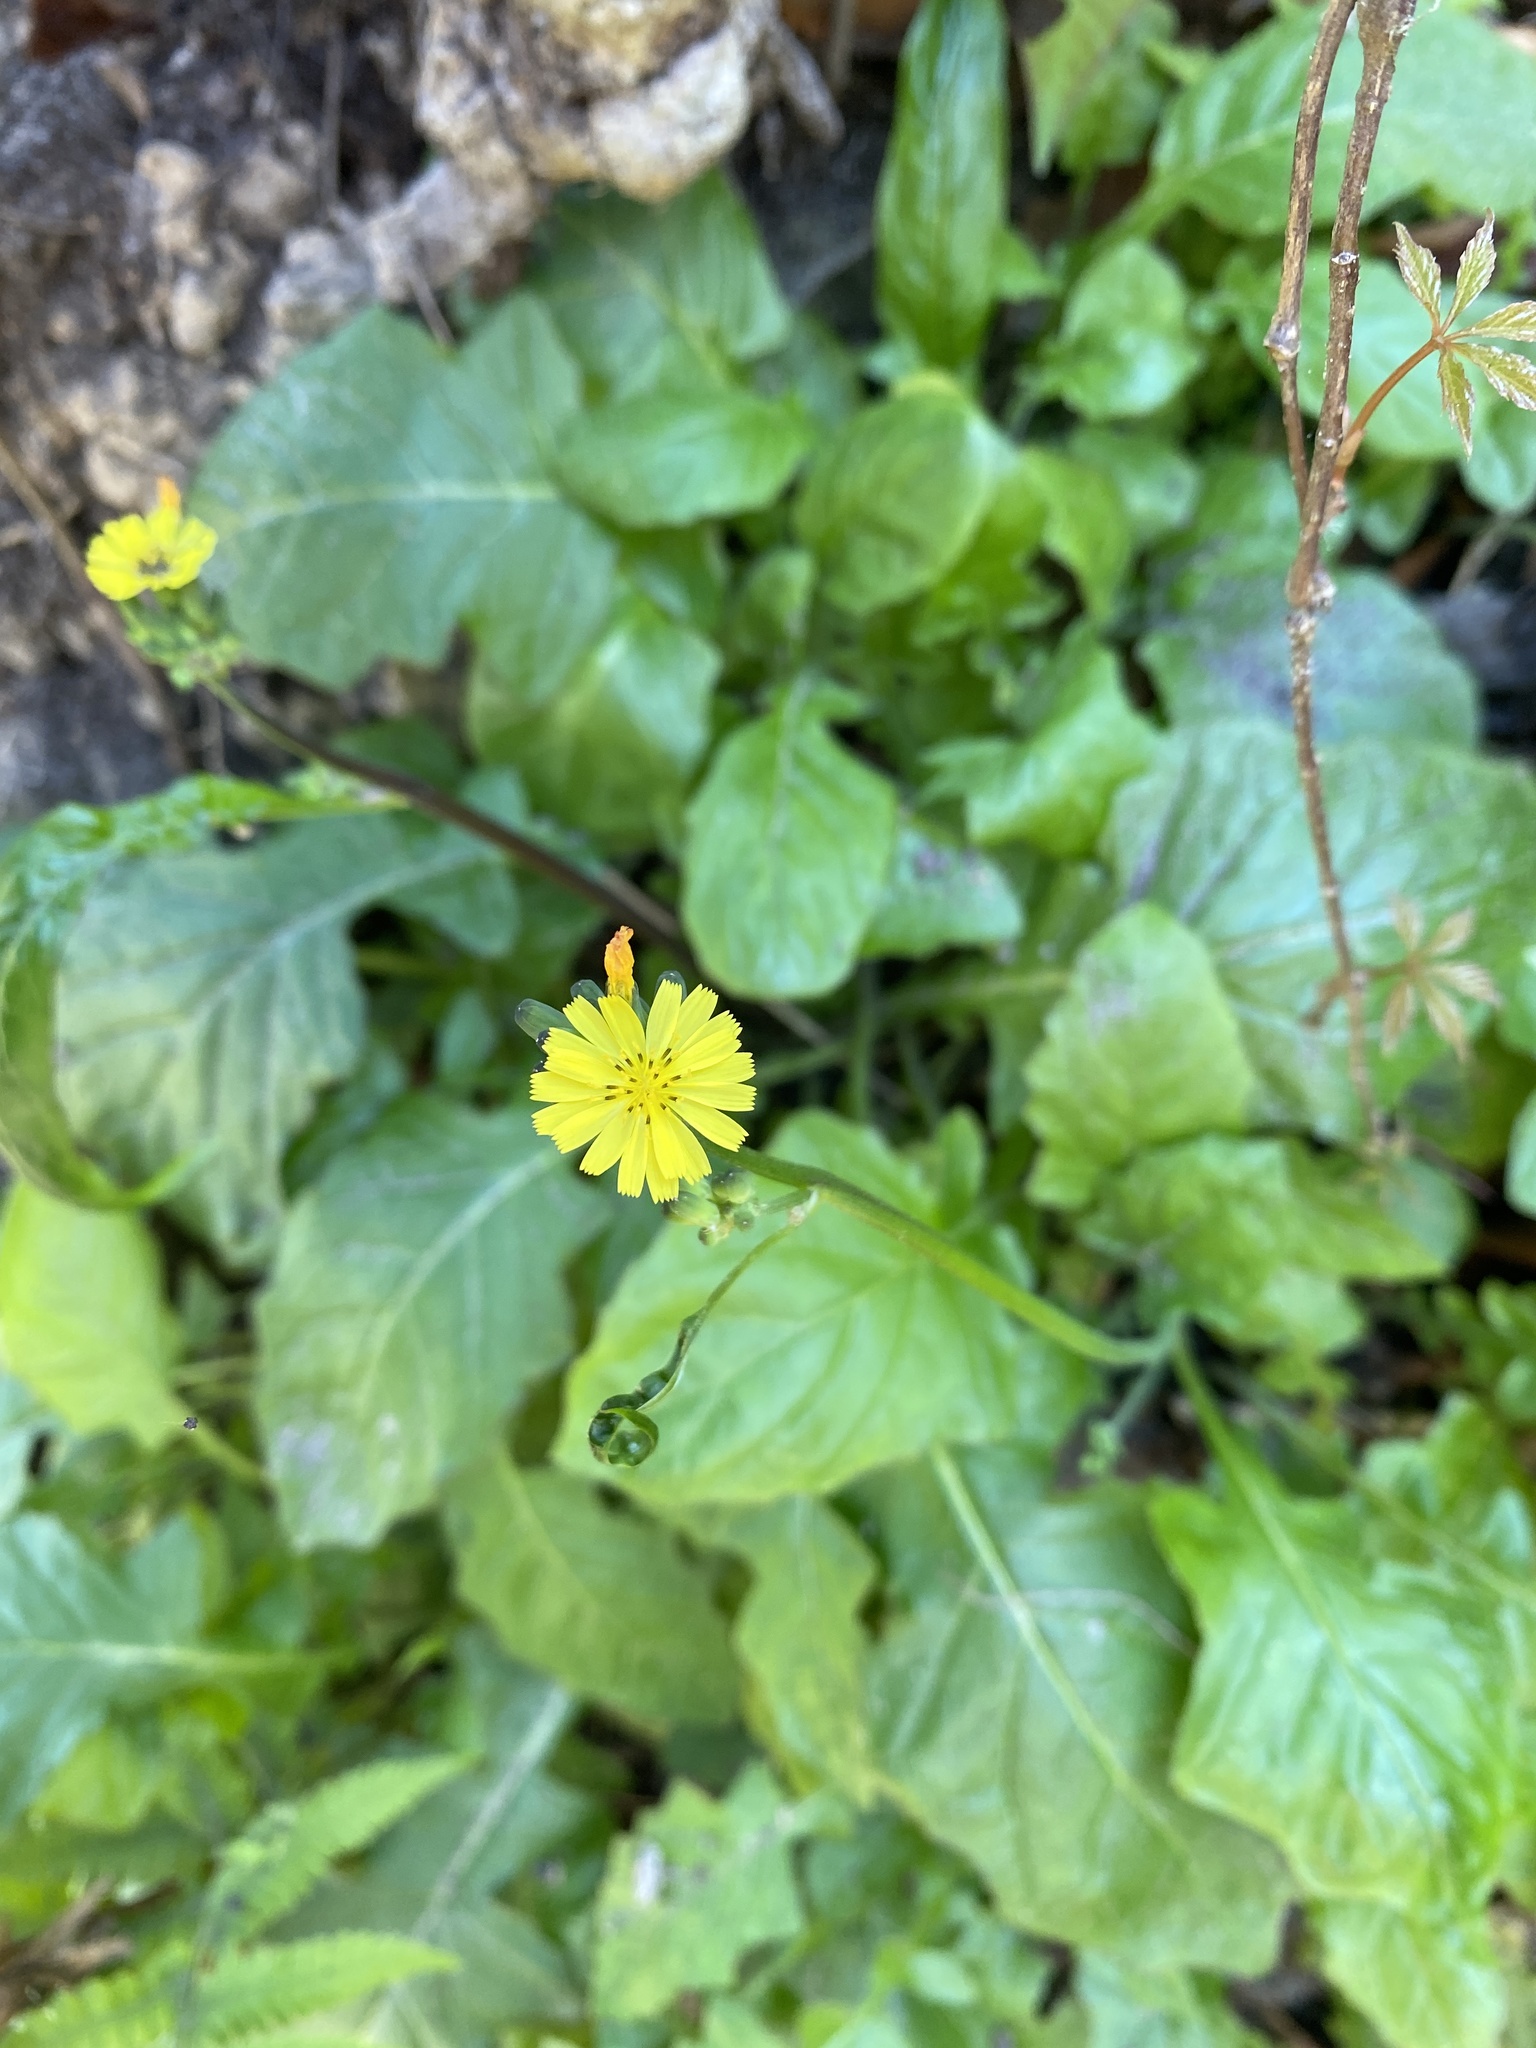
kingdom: Plantae
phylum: Tracheophyta
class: Magnoliopsida
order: Asterales
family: Asteraceae
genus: Youngia
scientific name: Youngia japonica
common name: Oriental false hawksbeard
